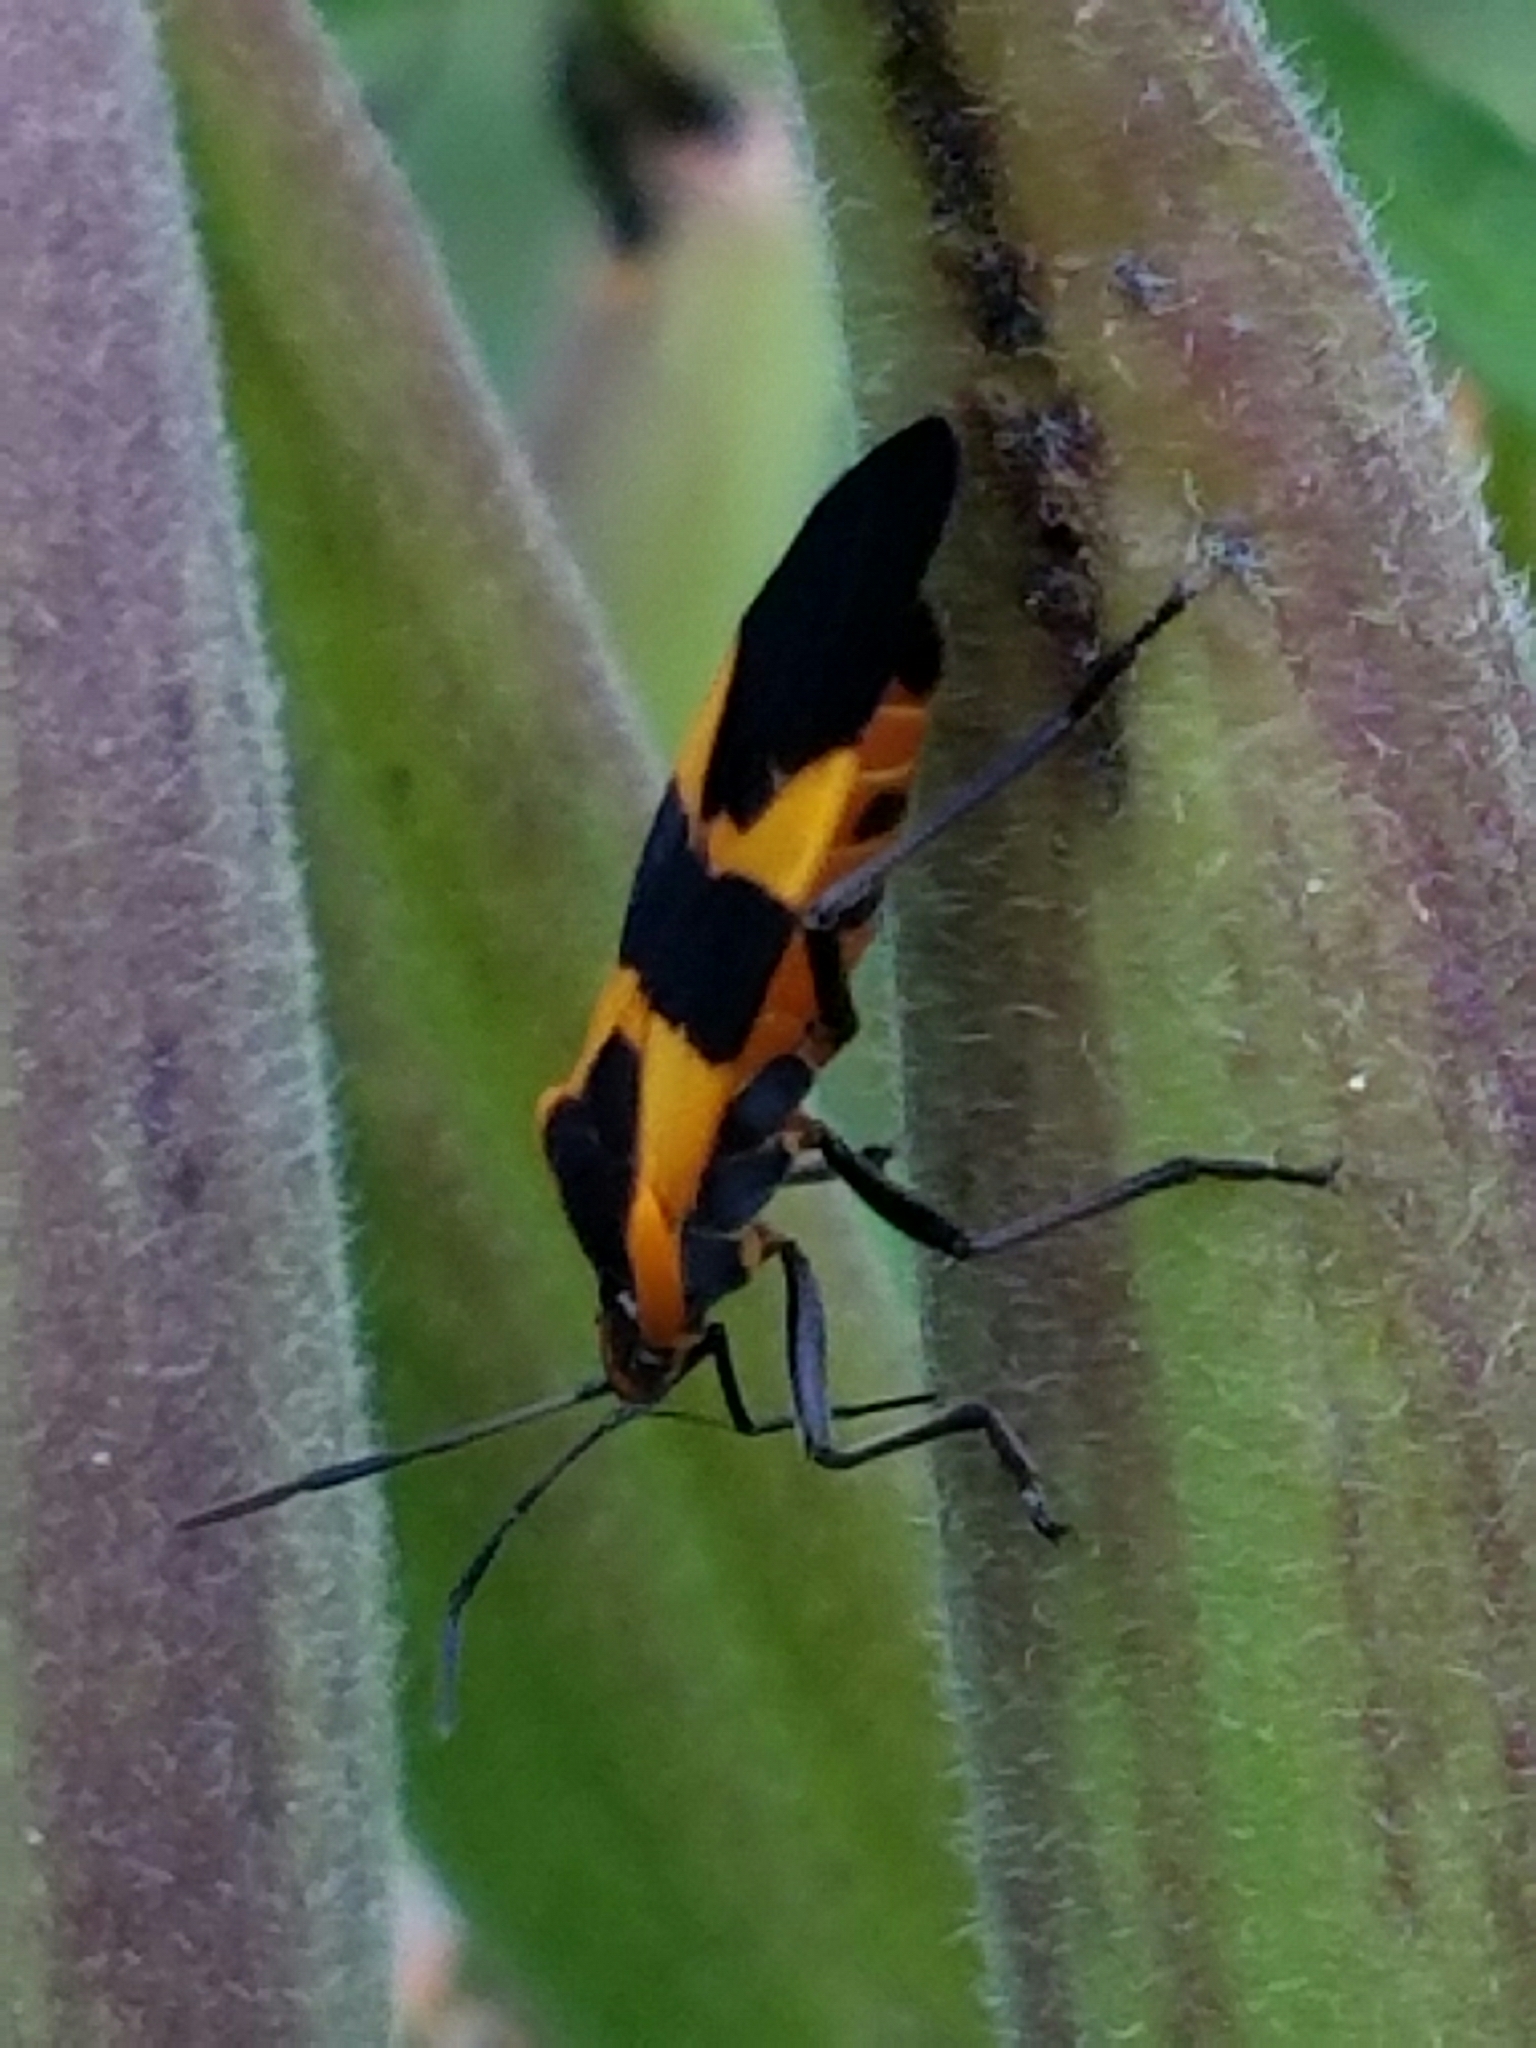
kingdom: Animalia
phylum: Arthropoda
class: Insecta
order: Hemiptera
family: Lygaeidae
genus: Oncopeltus
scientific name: Oncopeltus fasciatus
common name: Large milkweed bug
